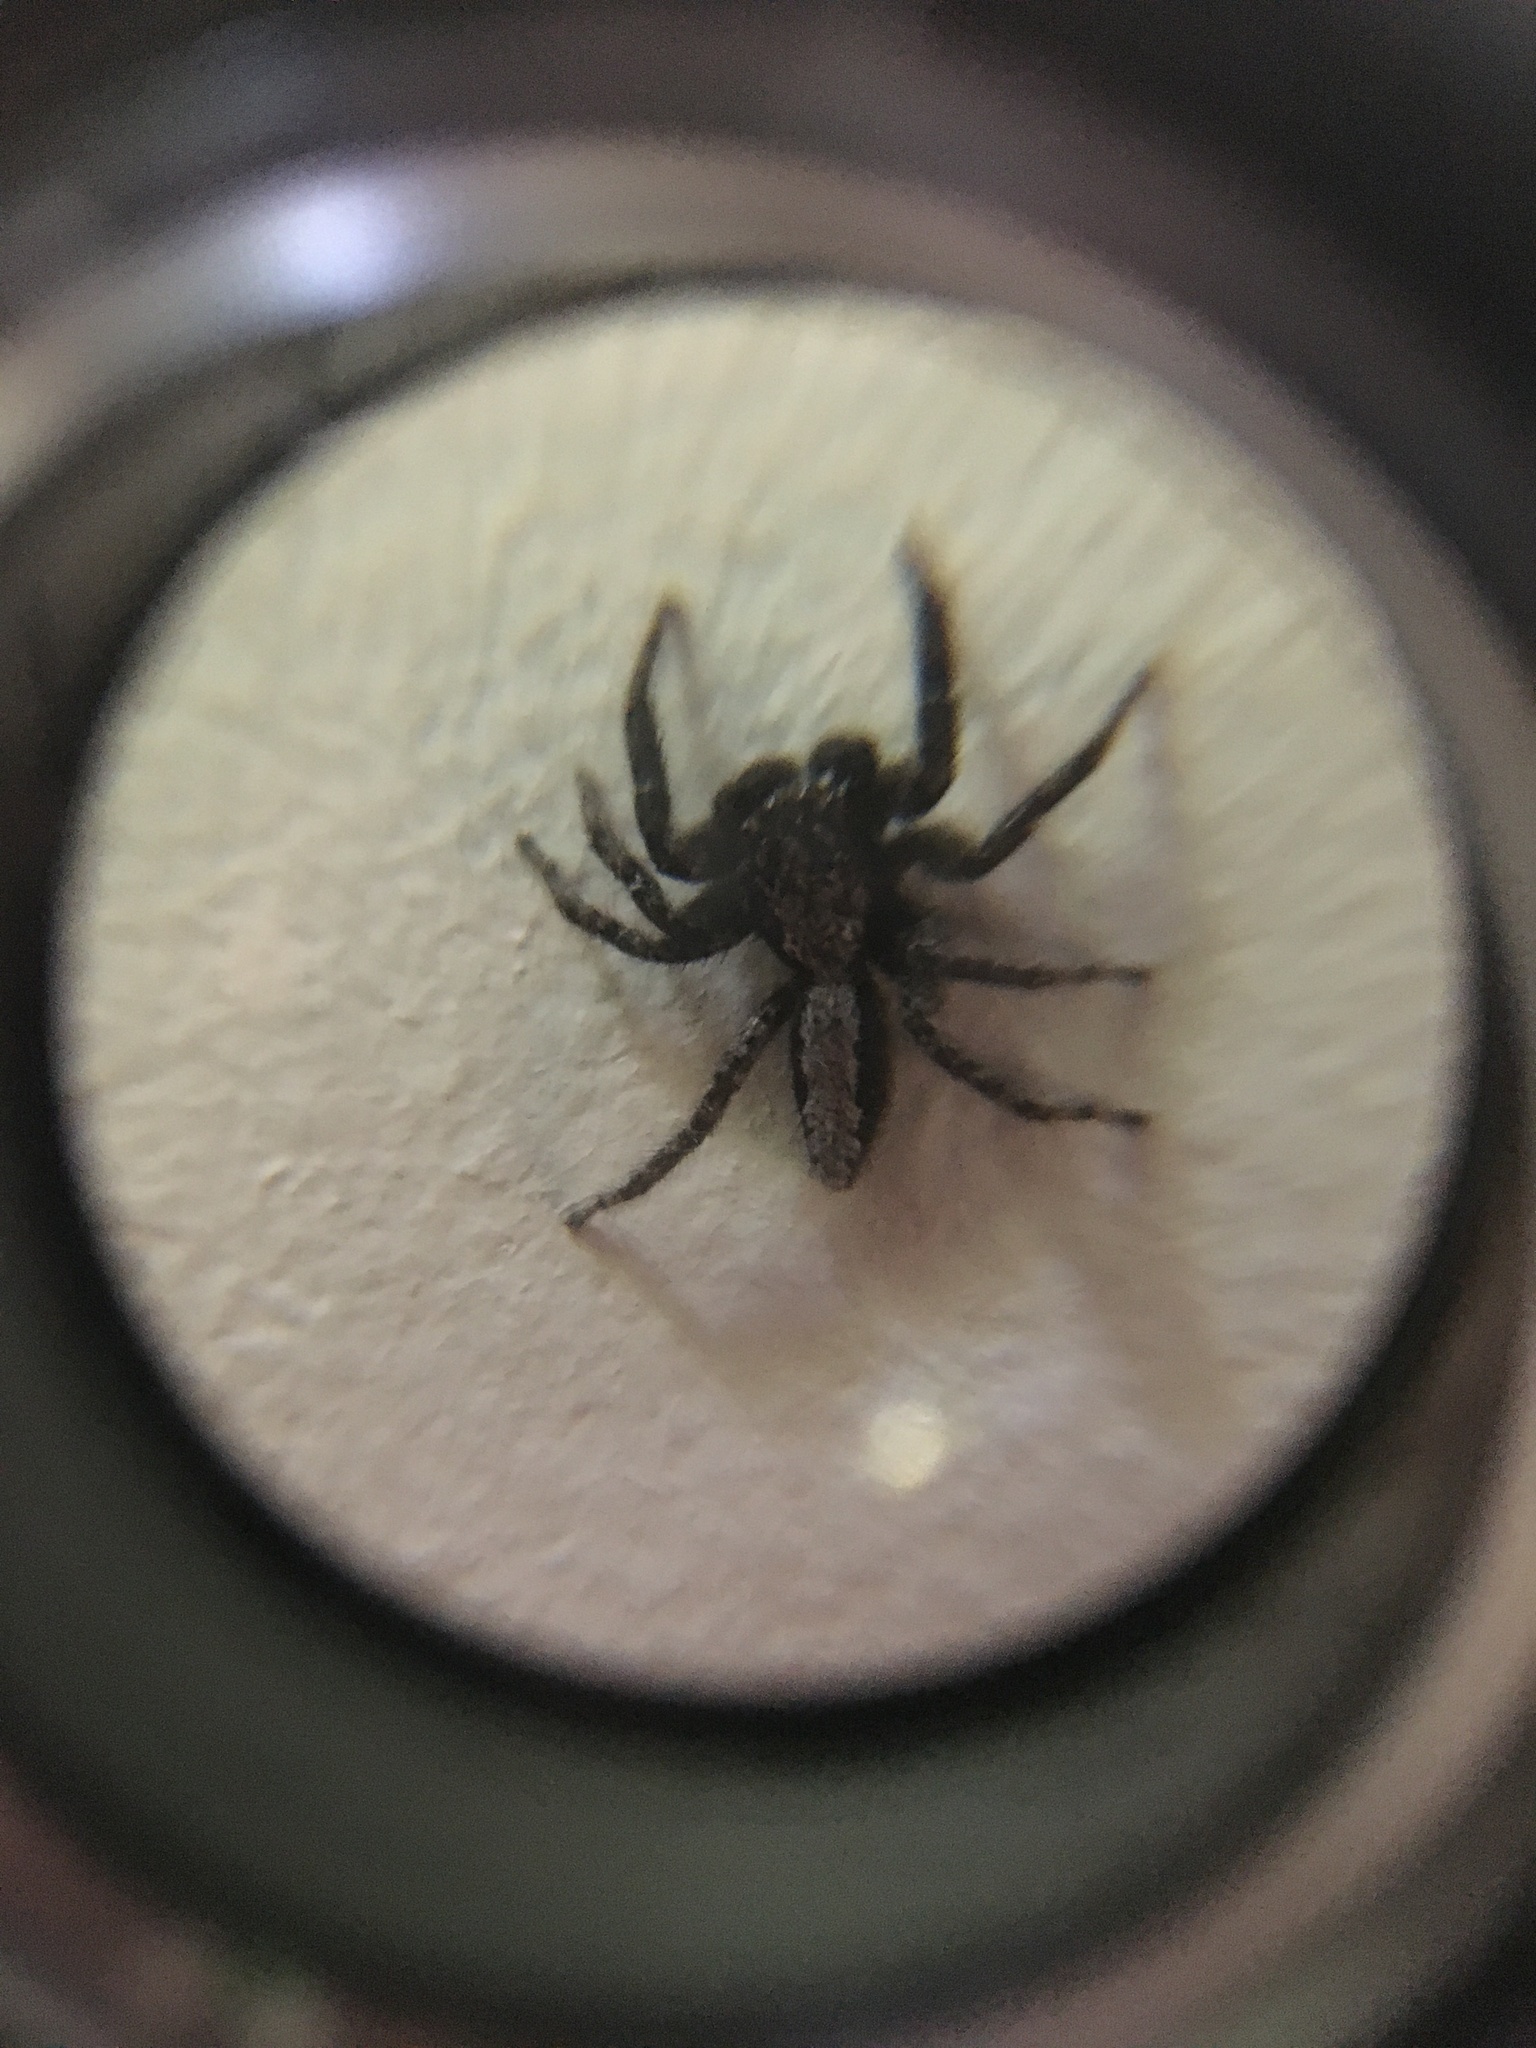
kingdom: Animalia
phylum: Arthropoda
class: Arachnida
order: Araneae
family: Salticidae
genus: Platycryptus
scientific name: Platycryptus californicus
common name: Jumping spiders
